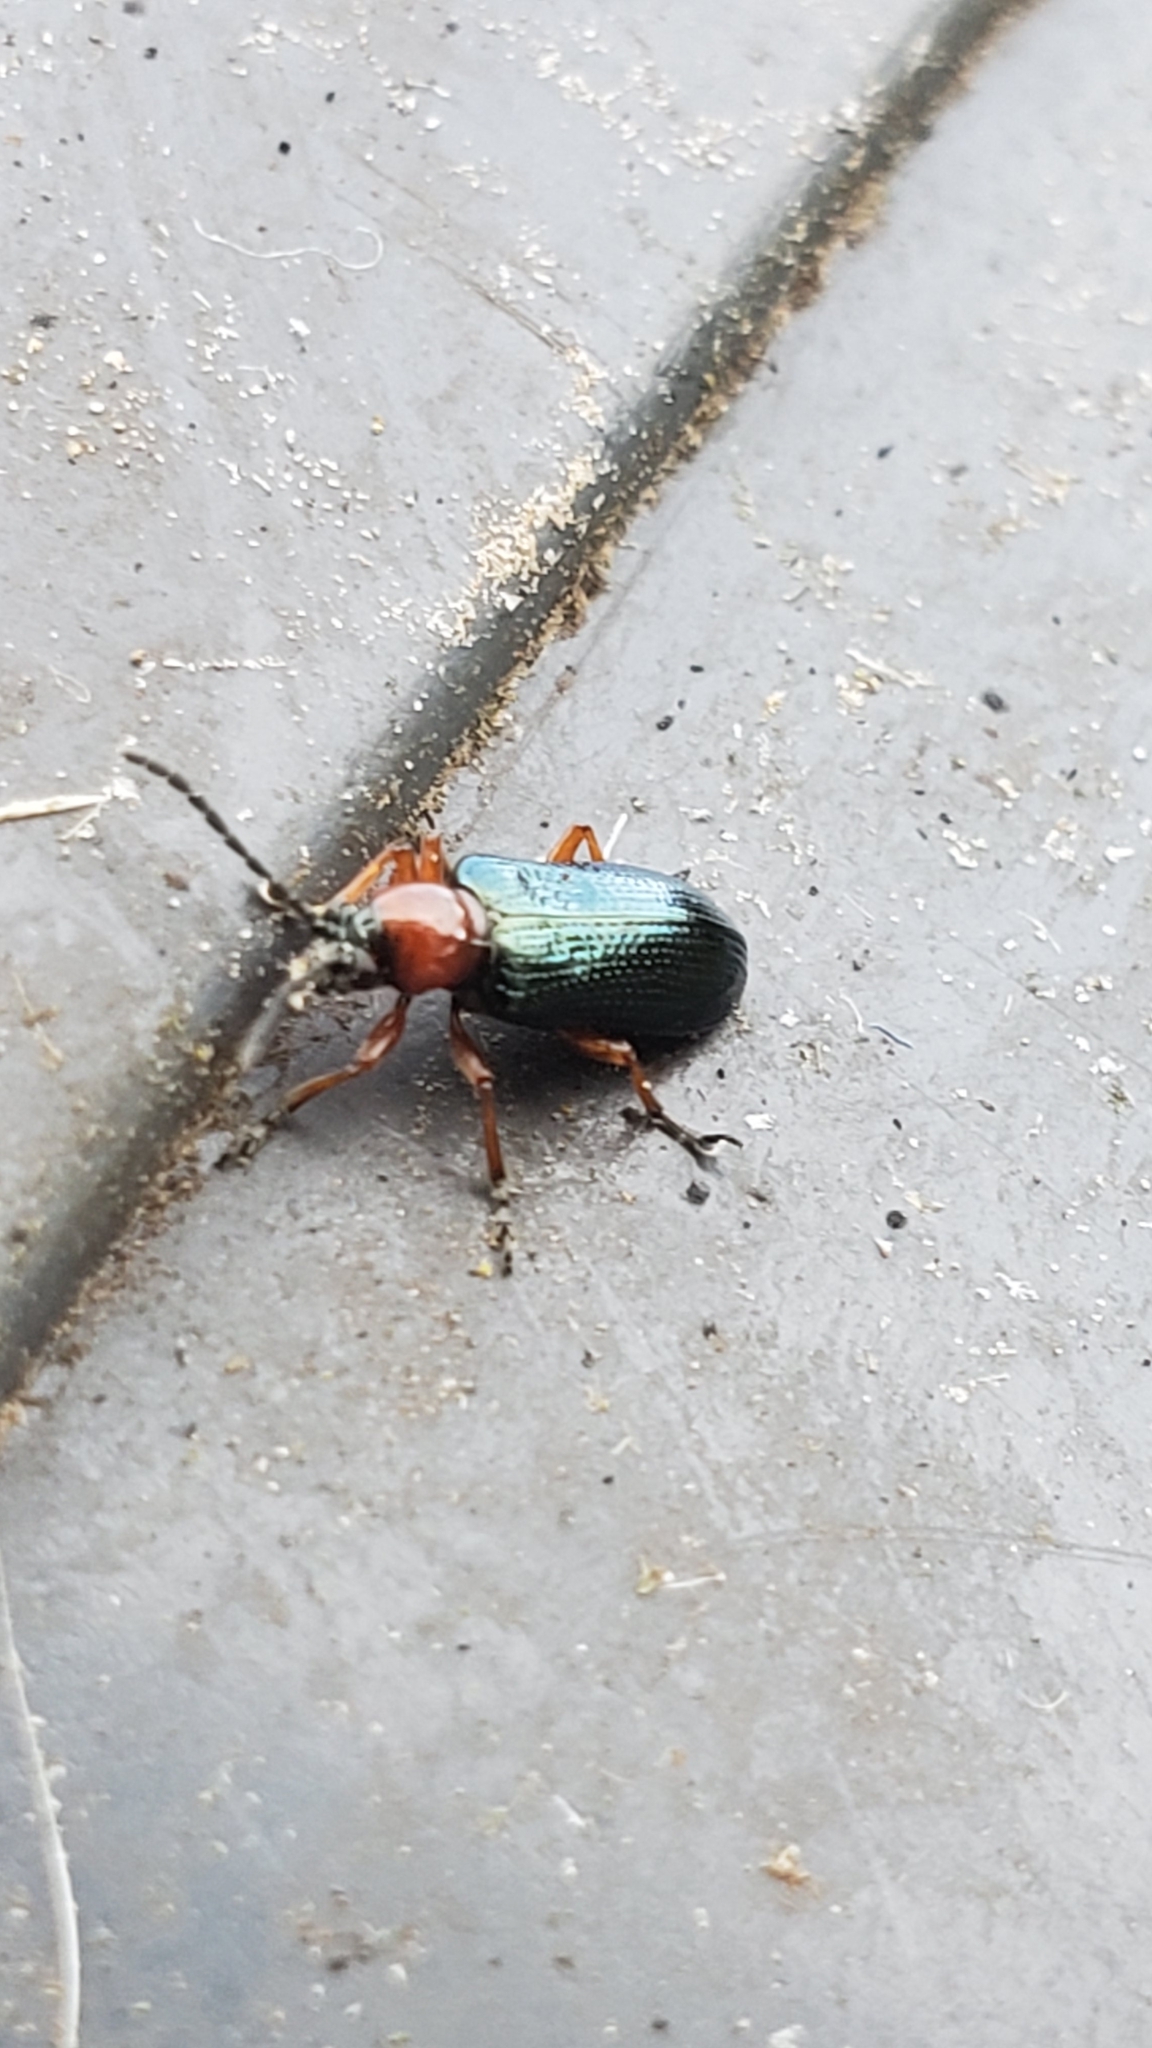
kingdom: Animalia
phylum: Arthropoda
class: Insecta
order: Coleoptera
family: Chrysomelidae
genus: Oulema
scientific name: Oulema
